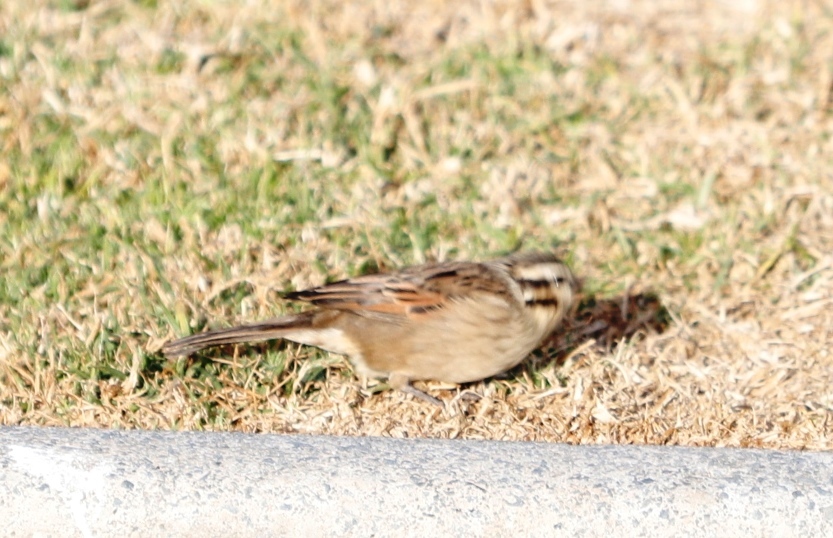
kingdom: Animalia
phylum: Chordata
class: Aves
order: Passeriformes
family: Emberizidae
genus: Emberiza
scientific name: Emberiza capensis
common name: Cape bunting
